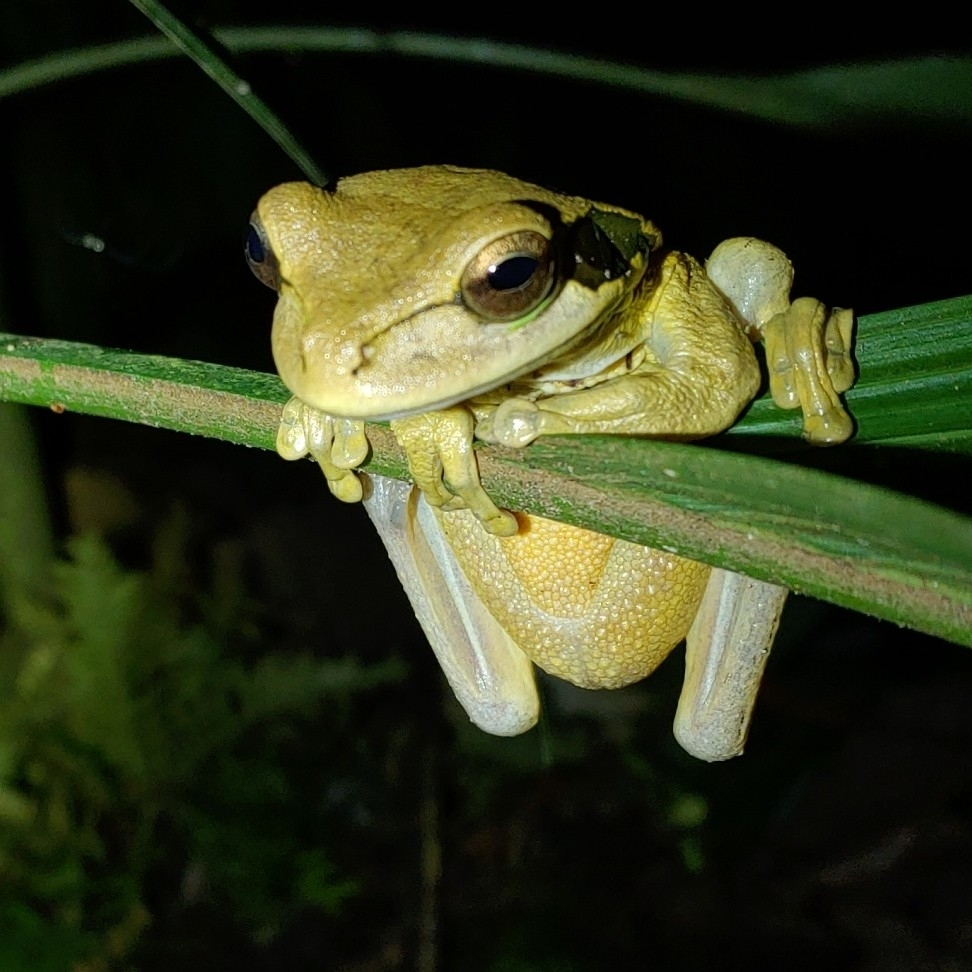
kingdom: Animalia
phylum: Chordata
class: Amphibia
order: Anura
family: Hylidae
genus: Smilisca
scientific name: Smilisca phaeota
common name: Central american smilisca
